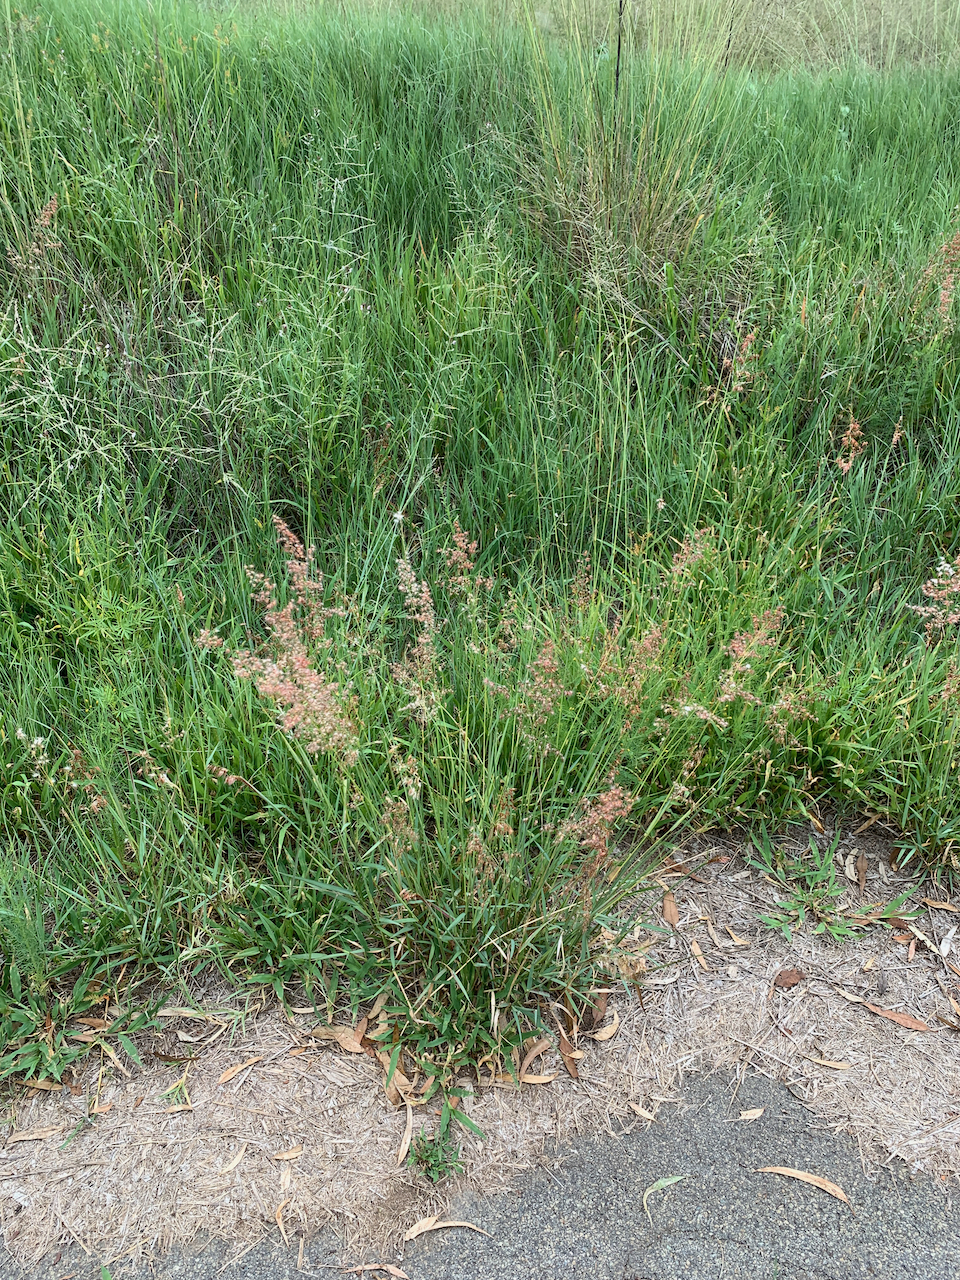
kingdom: Plantae
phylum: Tracheophyta
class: Liliopsida
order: Poales
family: Poaceae
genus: Melinis
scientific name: Melinis repens
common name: Rose natal grass
